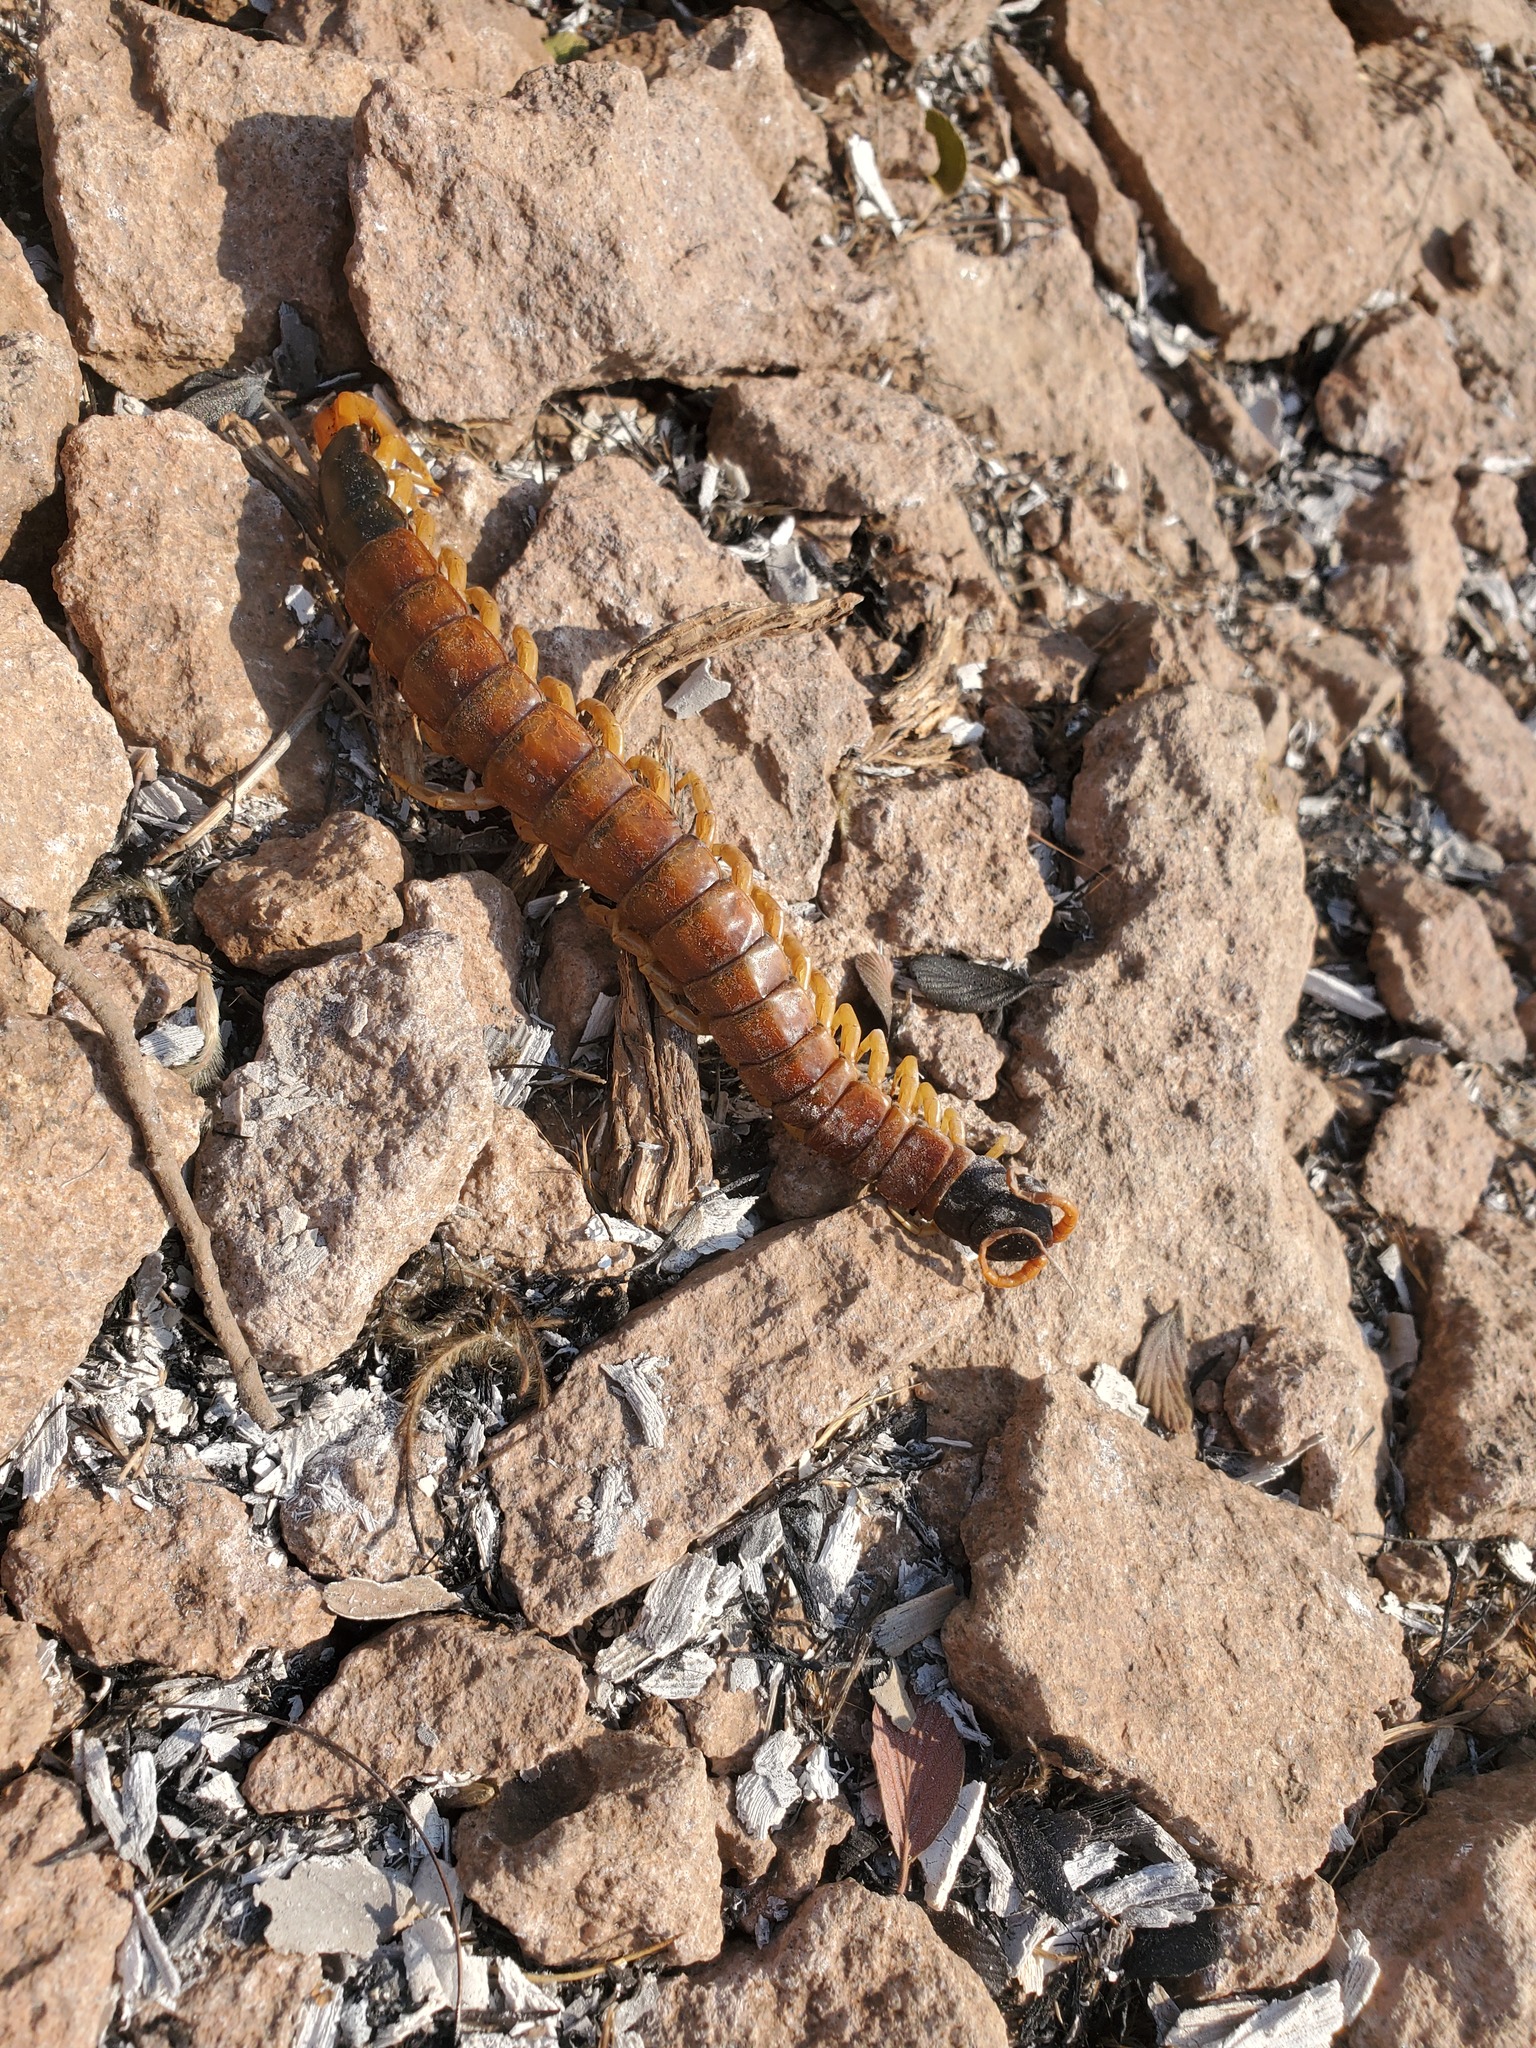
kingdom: Animalia
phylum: Arthropoda
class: Chilopoda
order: Scolopendromorpha
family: Scolopendridae
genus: Scolopendra
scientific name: Scolopendra heros
